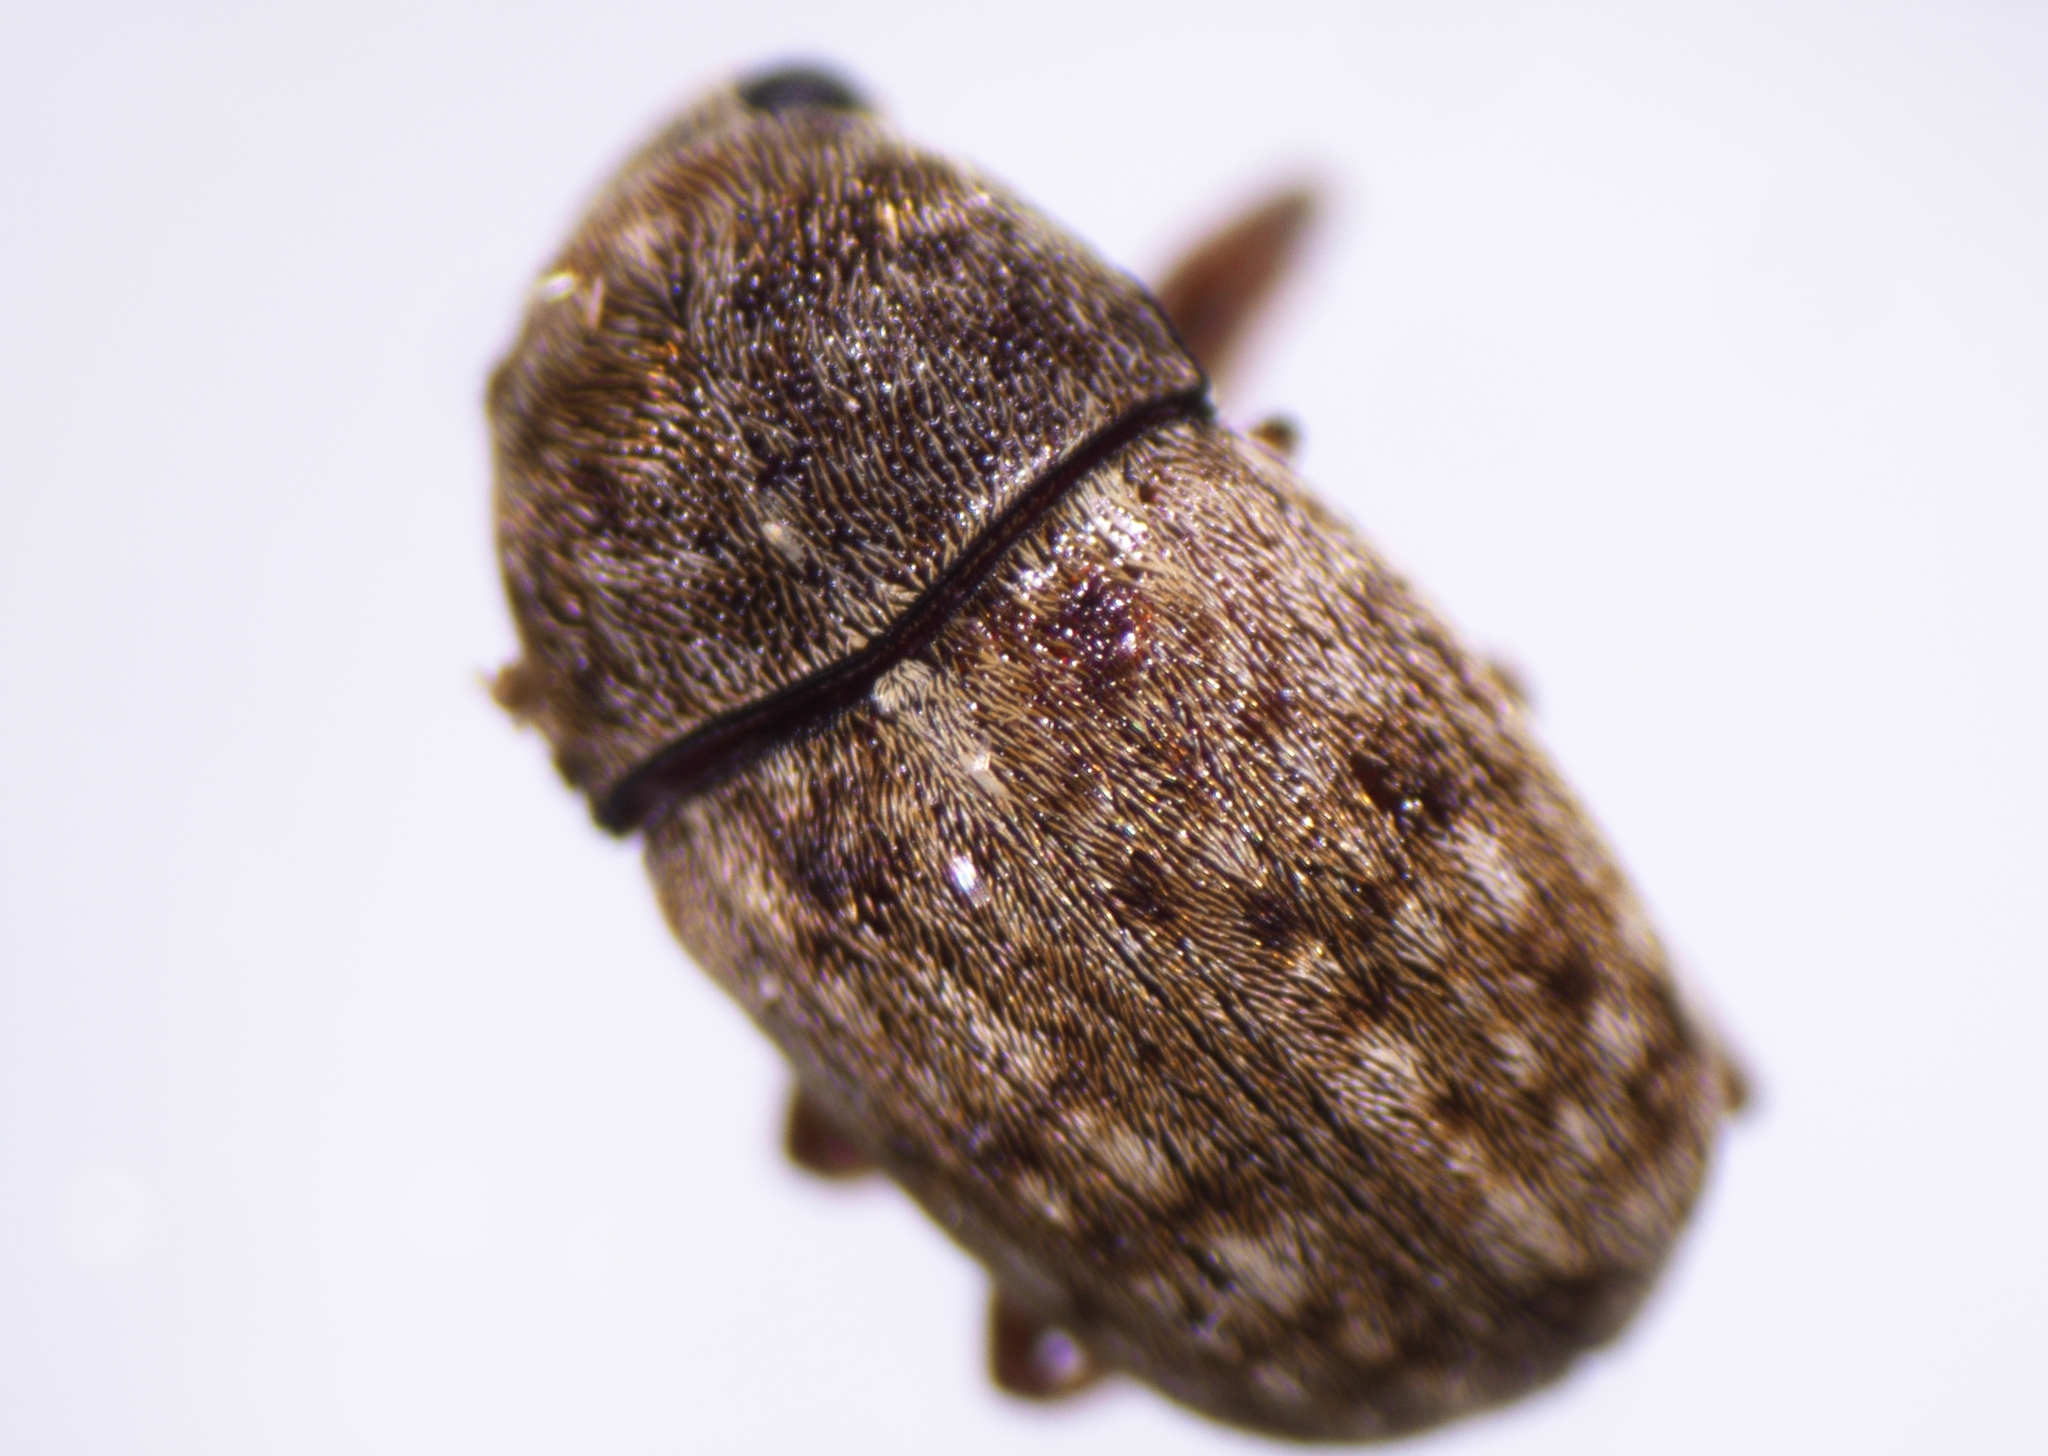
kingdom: Animalia
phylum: Arthropoda
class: Insecta
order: Coleoptera
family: Anthribidae
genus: Stenorhis
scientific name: Stenorhis ampedus
